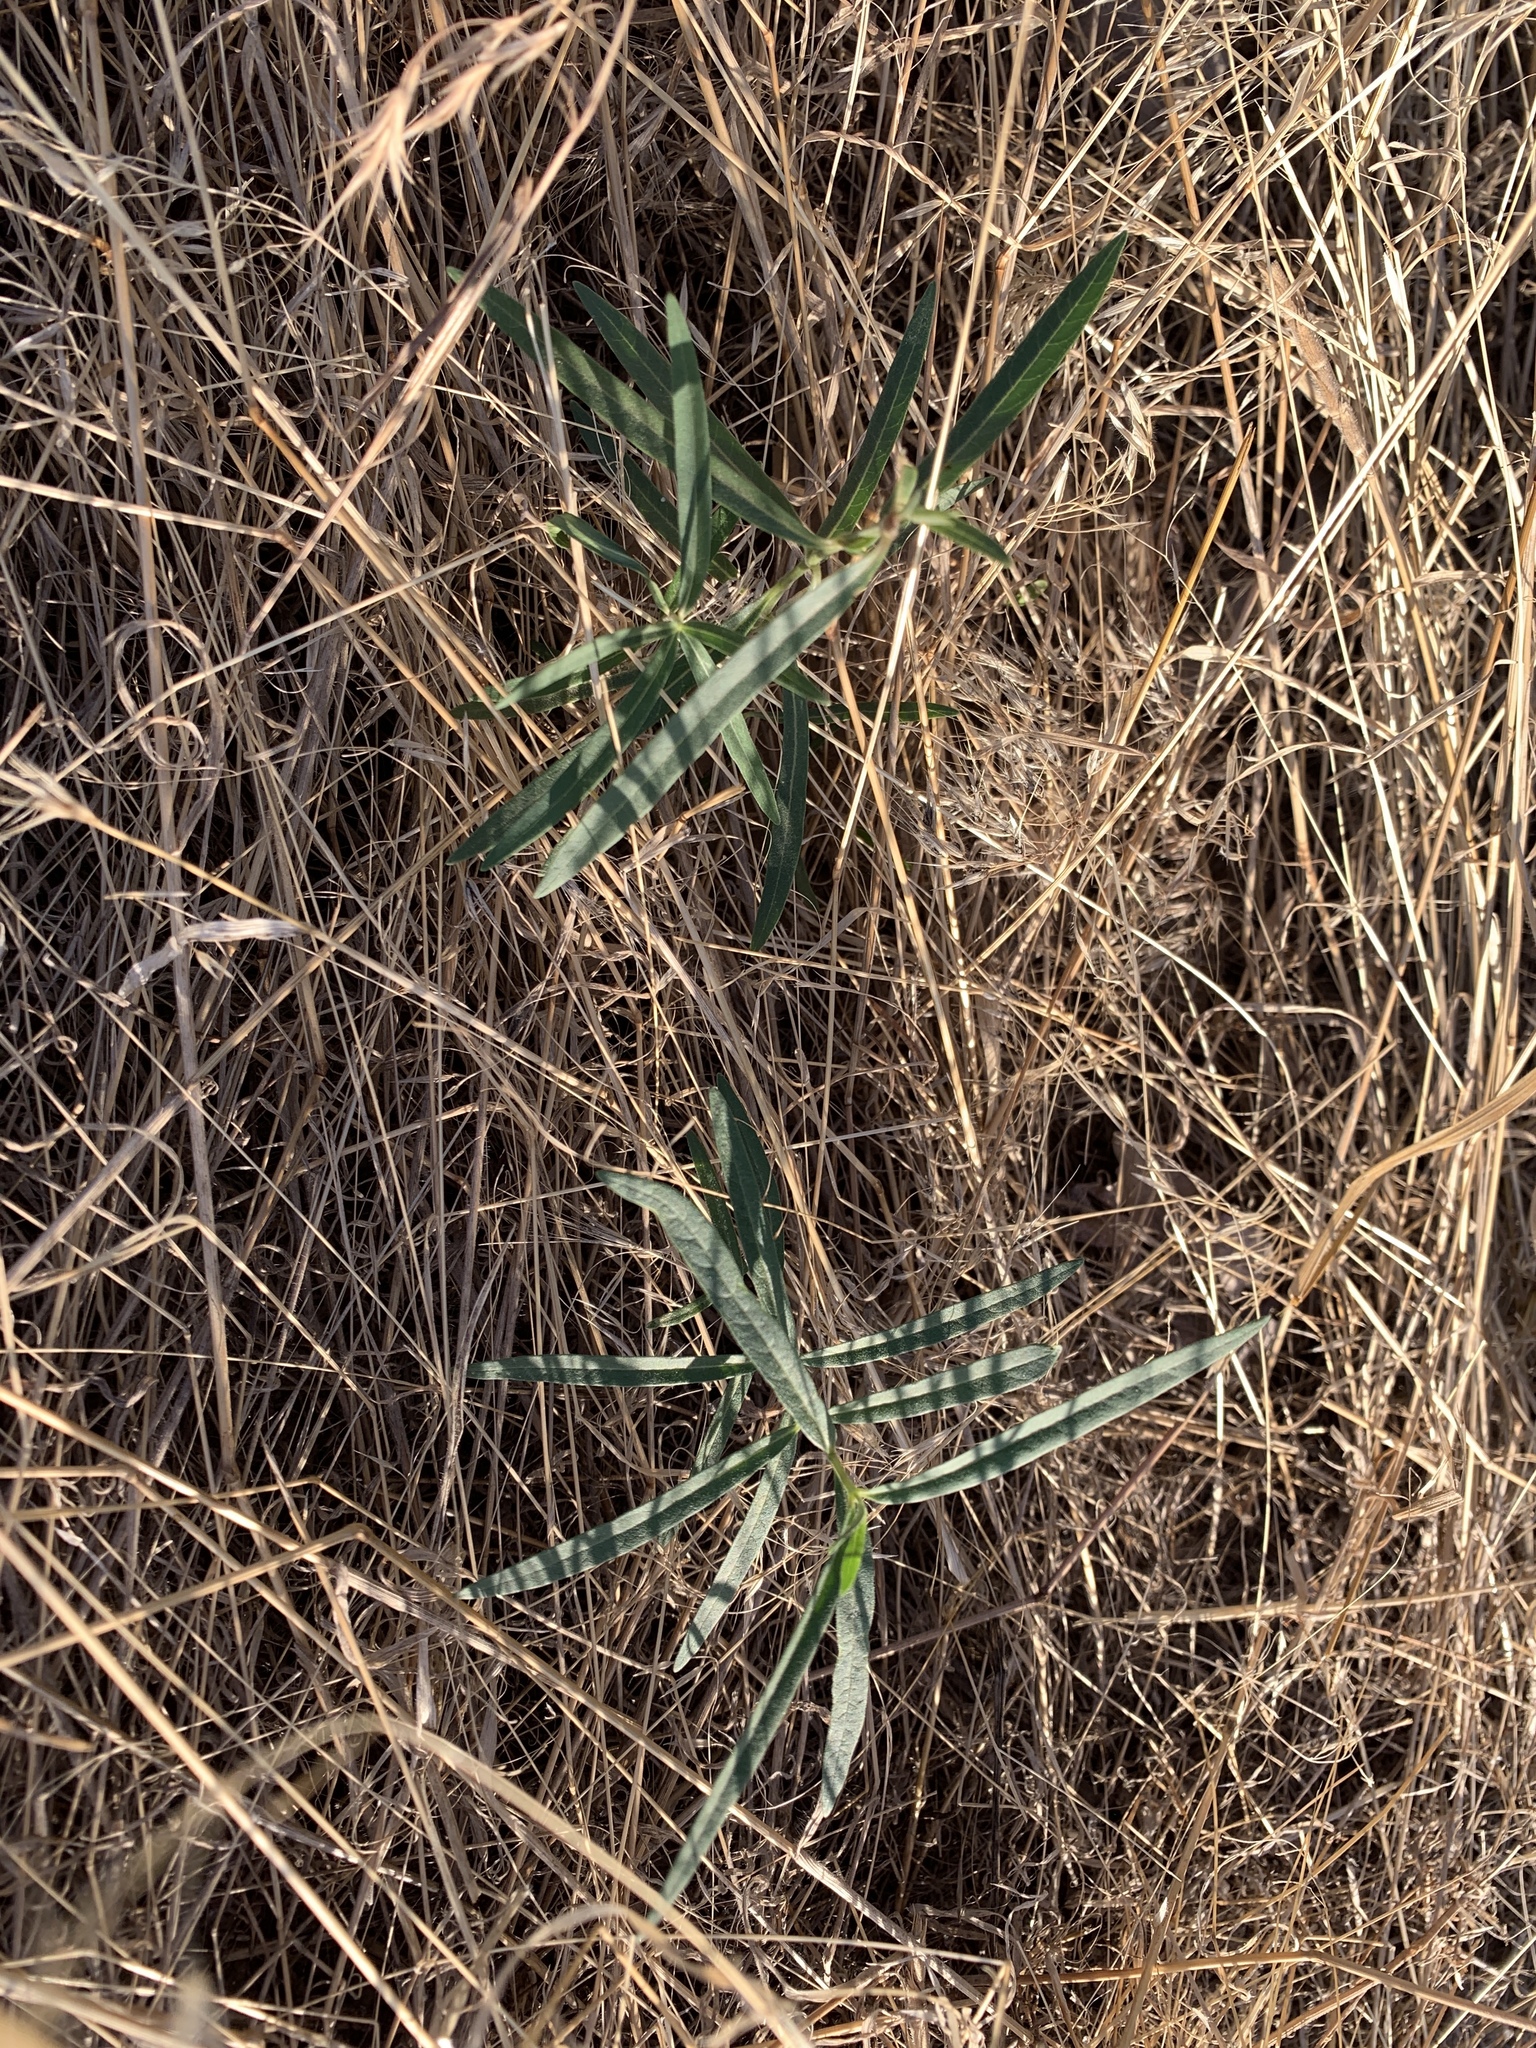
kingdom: Plantae
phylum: Tracheophyta
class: Magnoliopsida
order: Gentianales
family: Apocynaceae
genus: Asclepias
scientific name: Asclepias speciosa
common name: Showy milkweed
